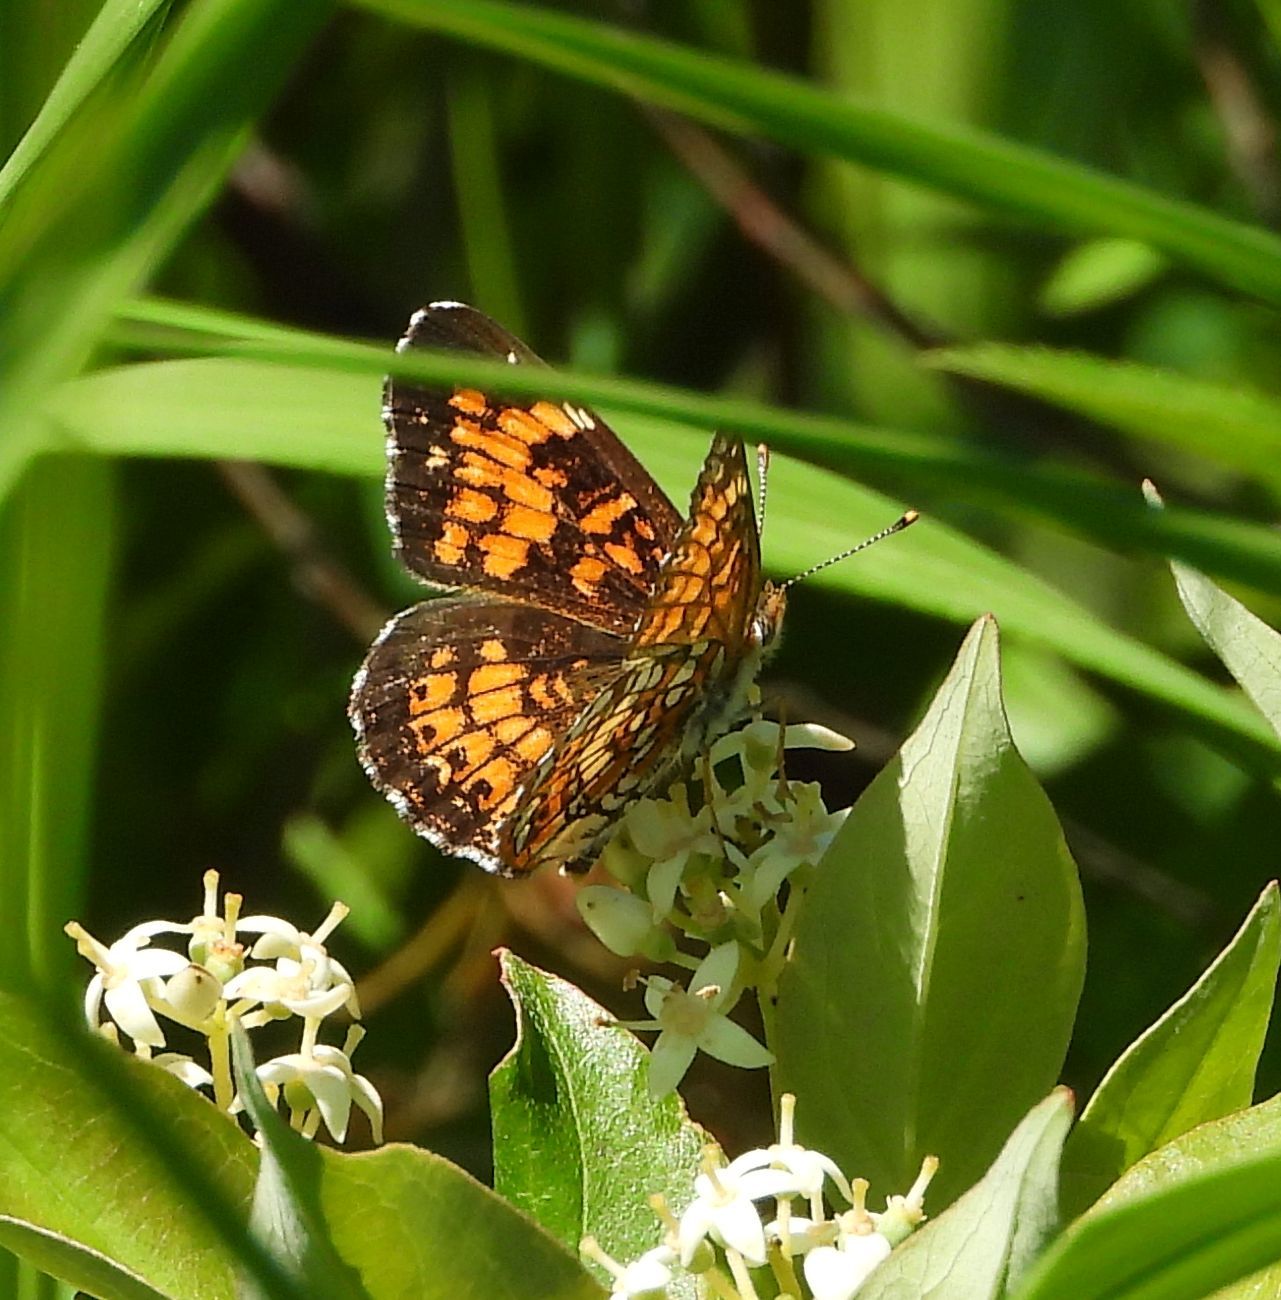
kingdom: Animalia
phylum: Arthropoda
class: Insecta
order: Lepidoptera
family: Nymphalidae
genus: Chlosyne
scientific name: Chlosyne harrisii
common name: Harris's checkerspot
